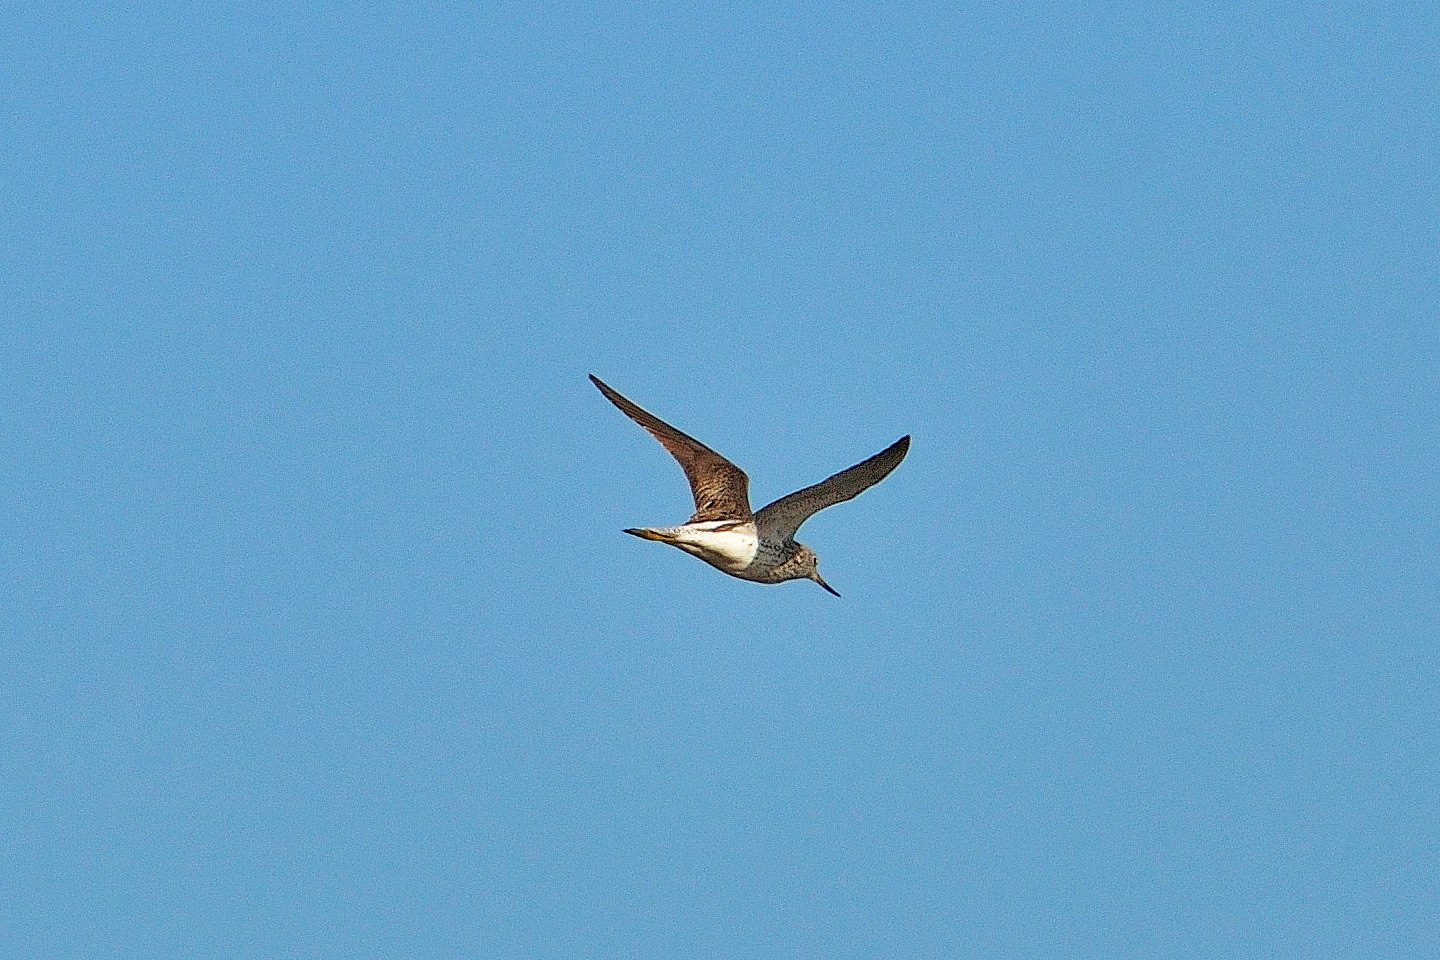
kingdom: Animalia
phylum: Chordata
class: Aves
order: Charadriiformes
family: Scolopacidae
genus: Tringa
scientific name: Tringa nebularia
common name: Common greenshank
